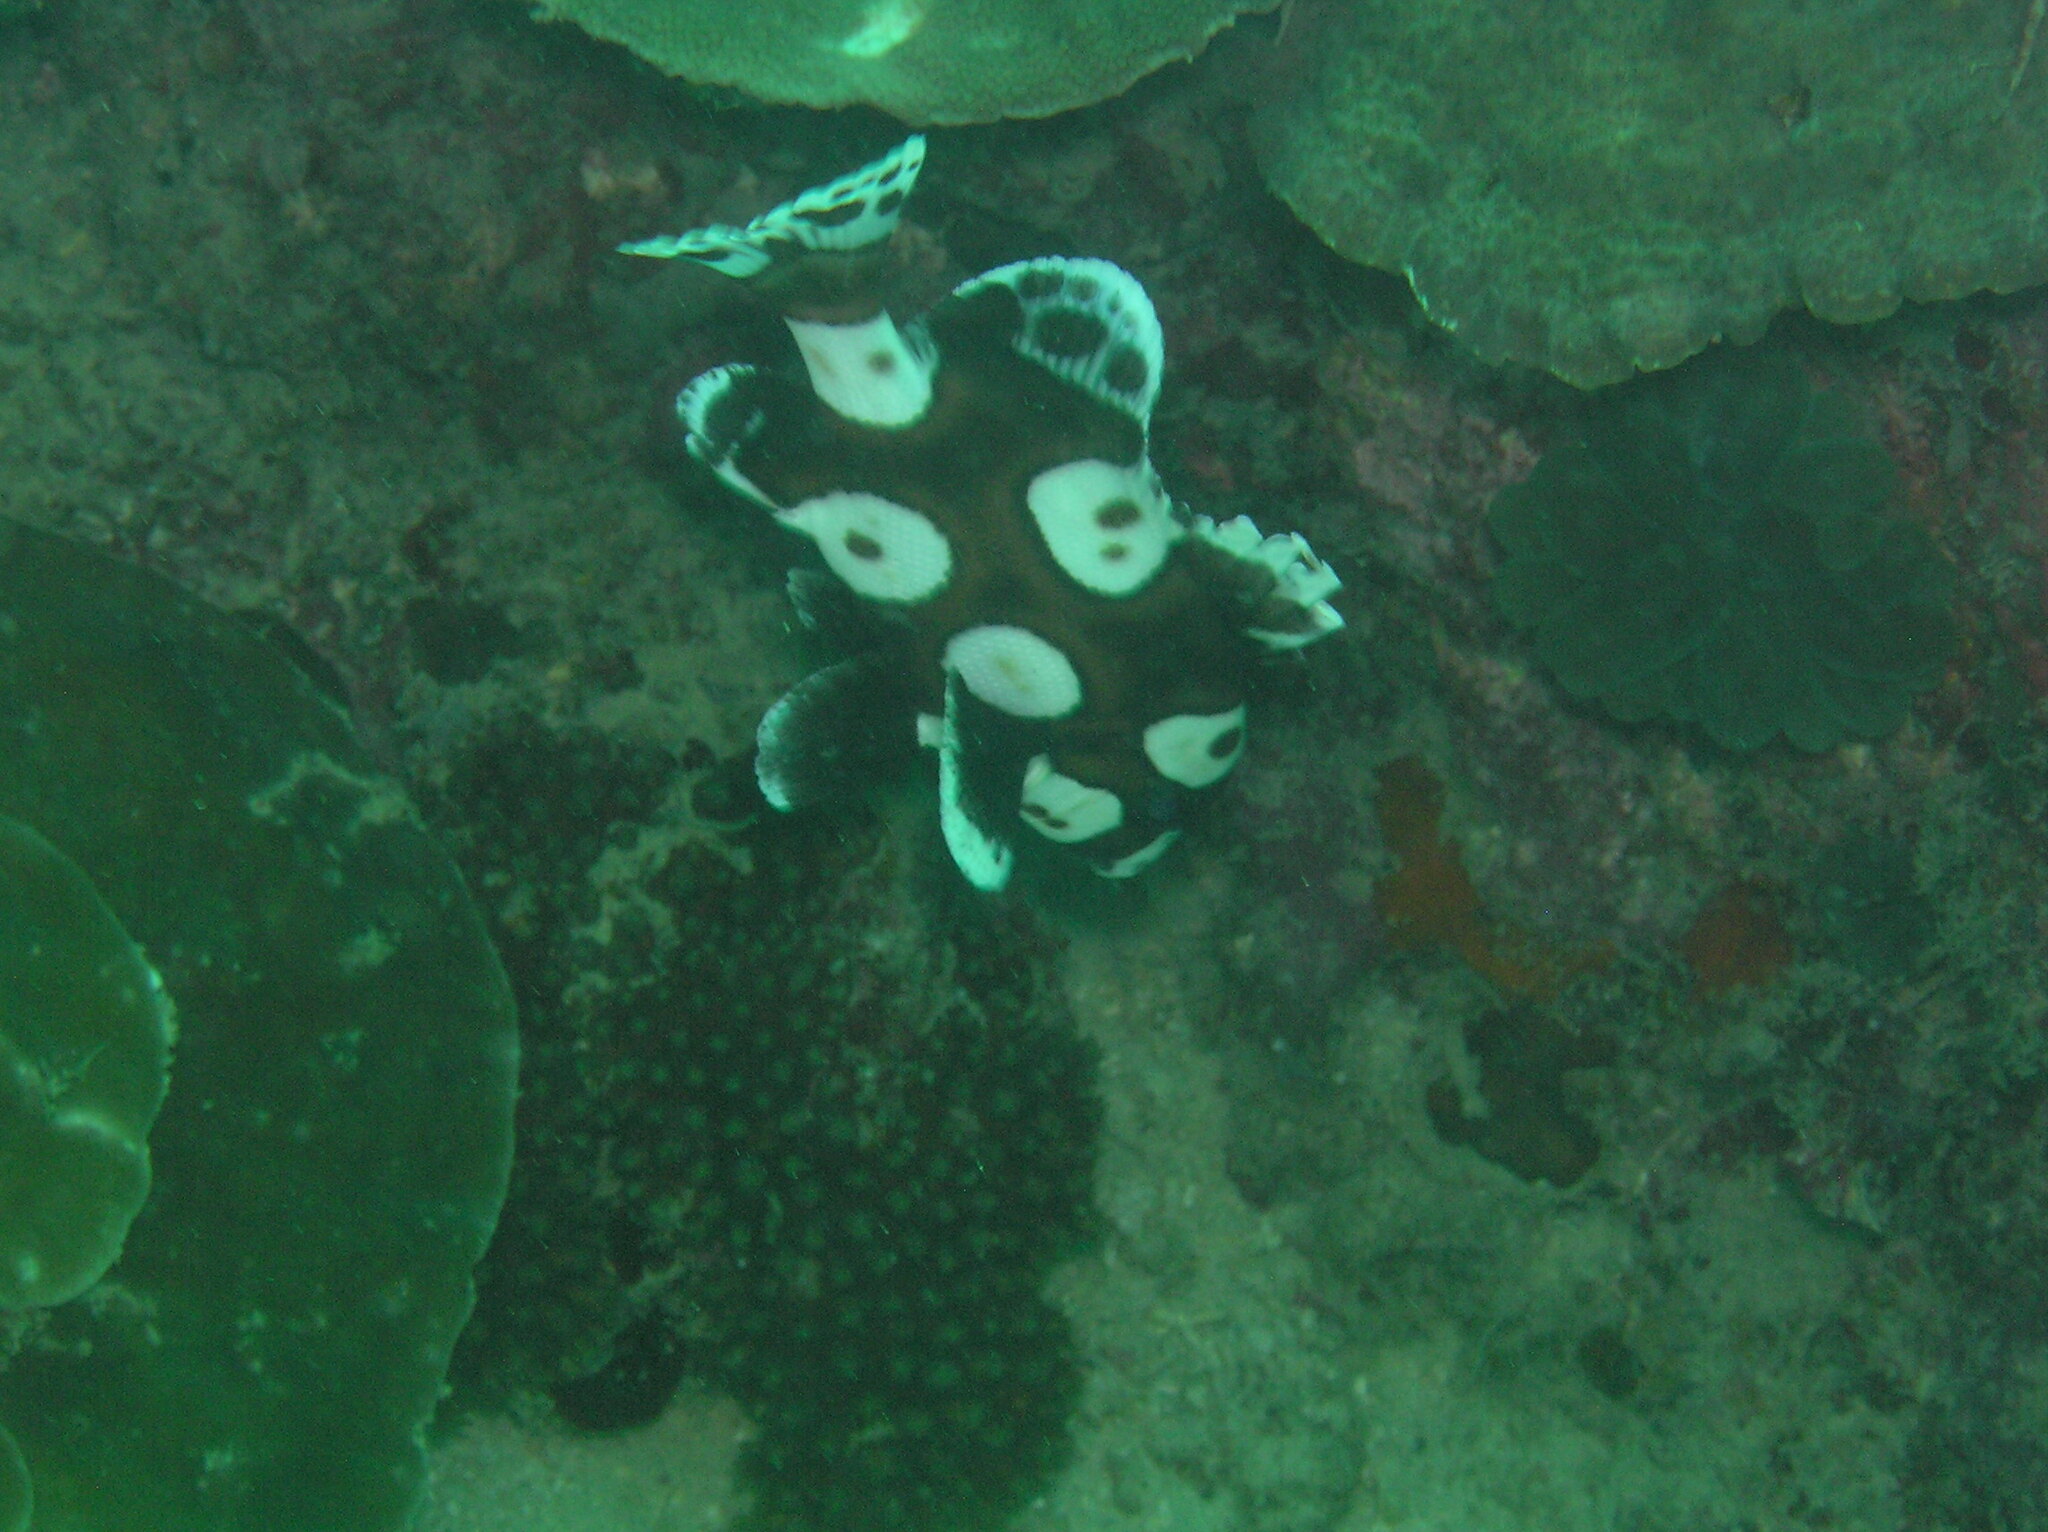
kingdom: Animalia
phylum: Chordata
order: Perciformes
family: Haemulidae
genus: Plectorhinchus
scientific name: Plectorhinchus chaetodonoides
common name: Harlequin sweetlips
